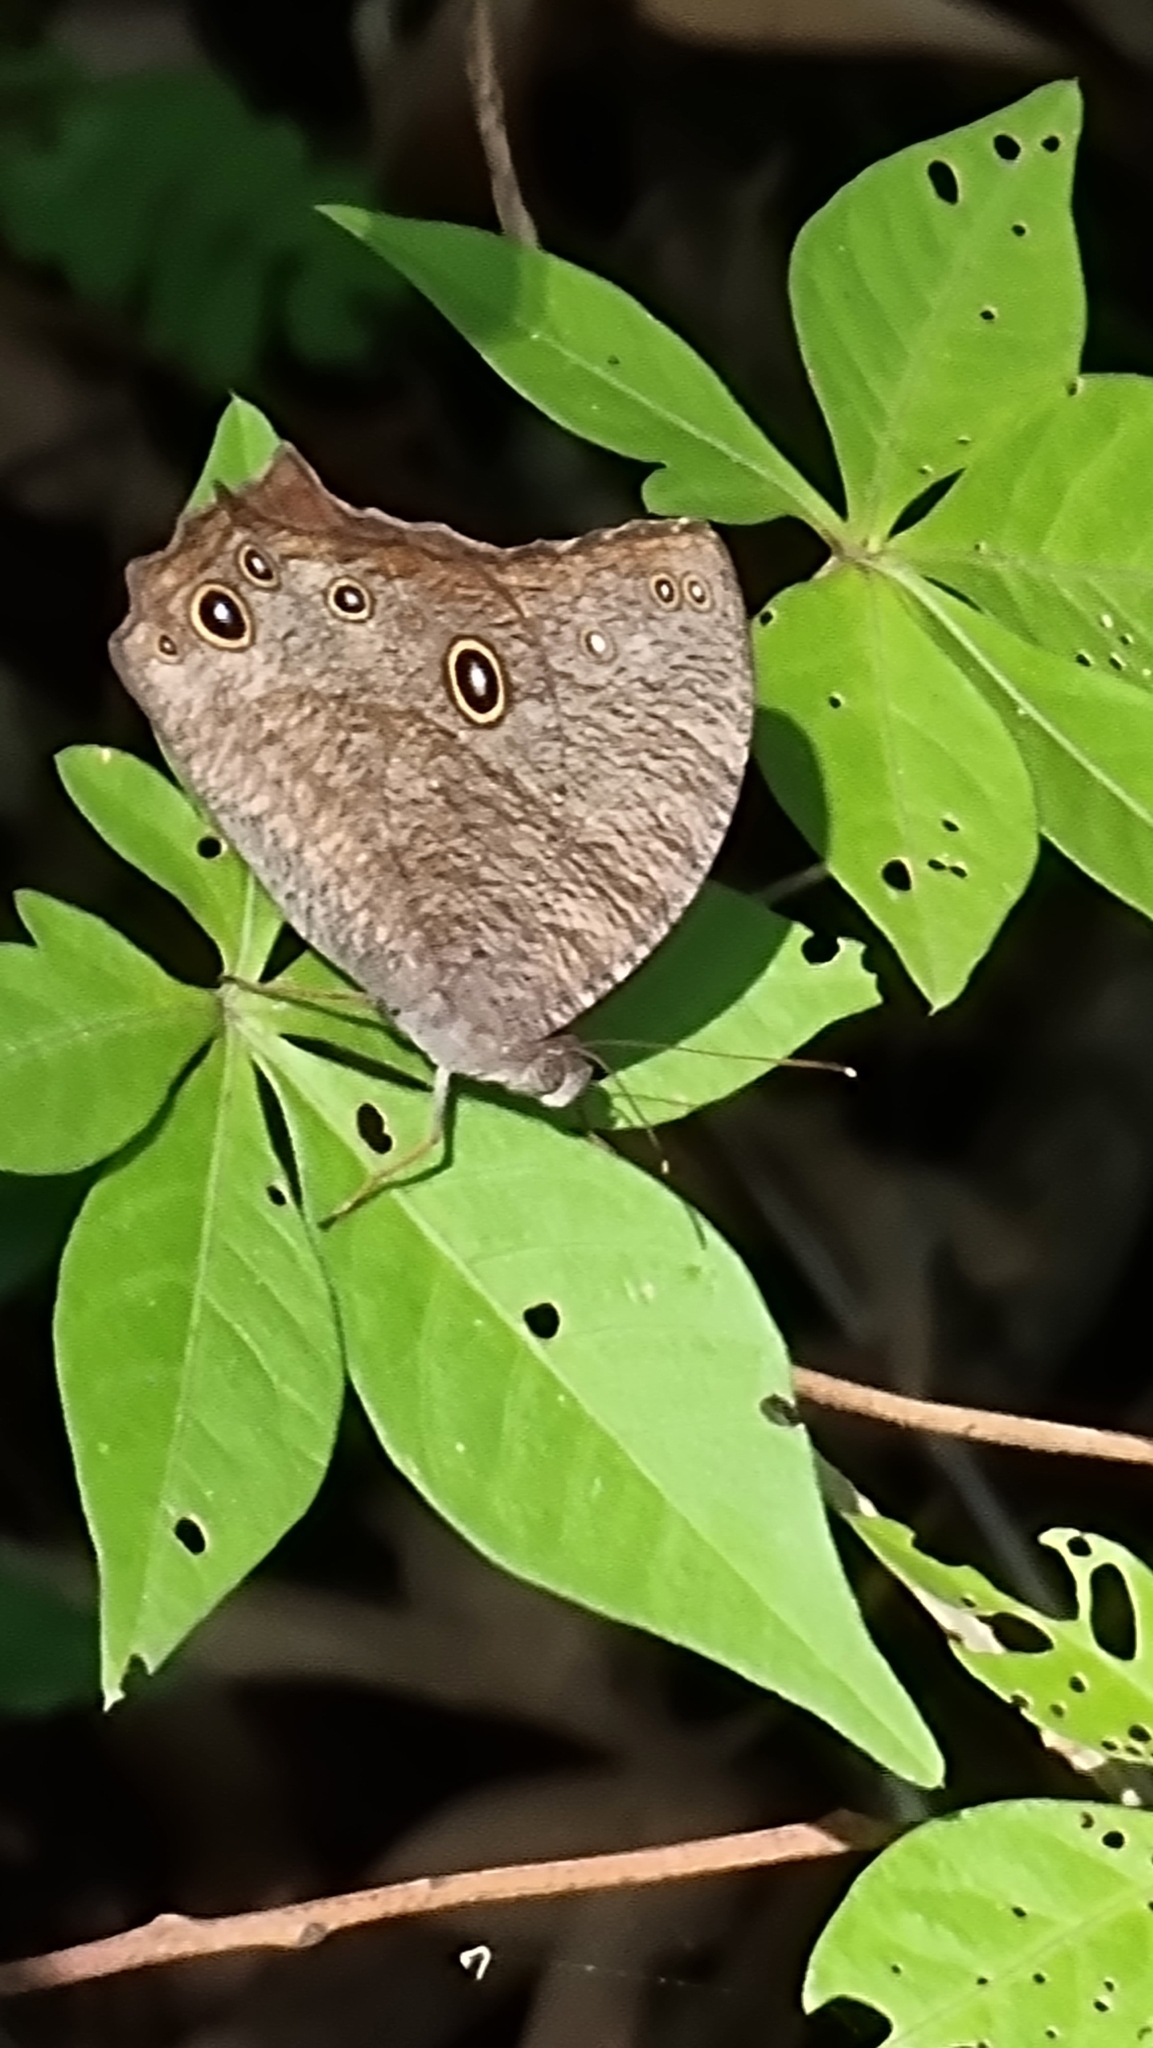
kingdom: Animalia
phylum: Arthropoda
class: Insecta
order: Lepidoptera
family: Nymphalidae
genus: Melanitis
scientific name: Melanitis leda
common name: Twilight brown
